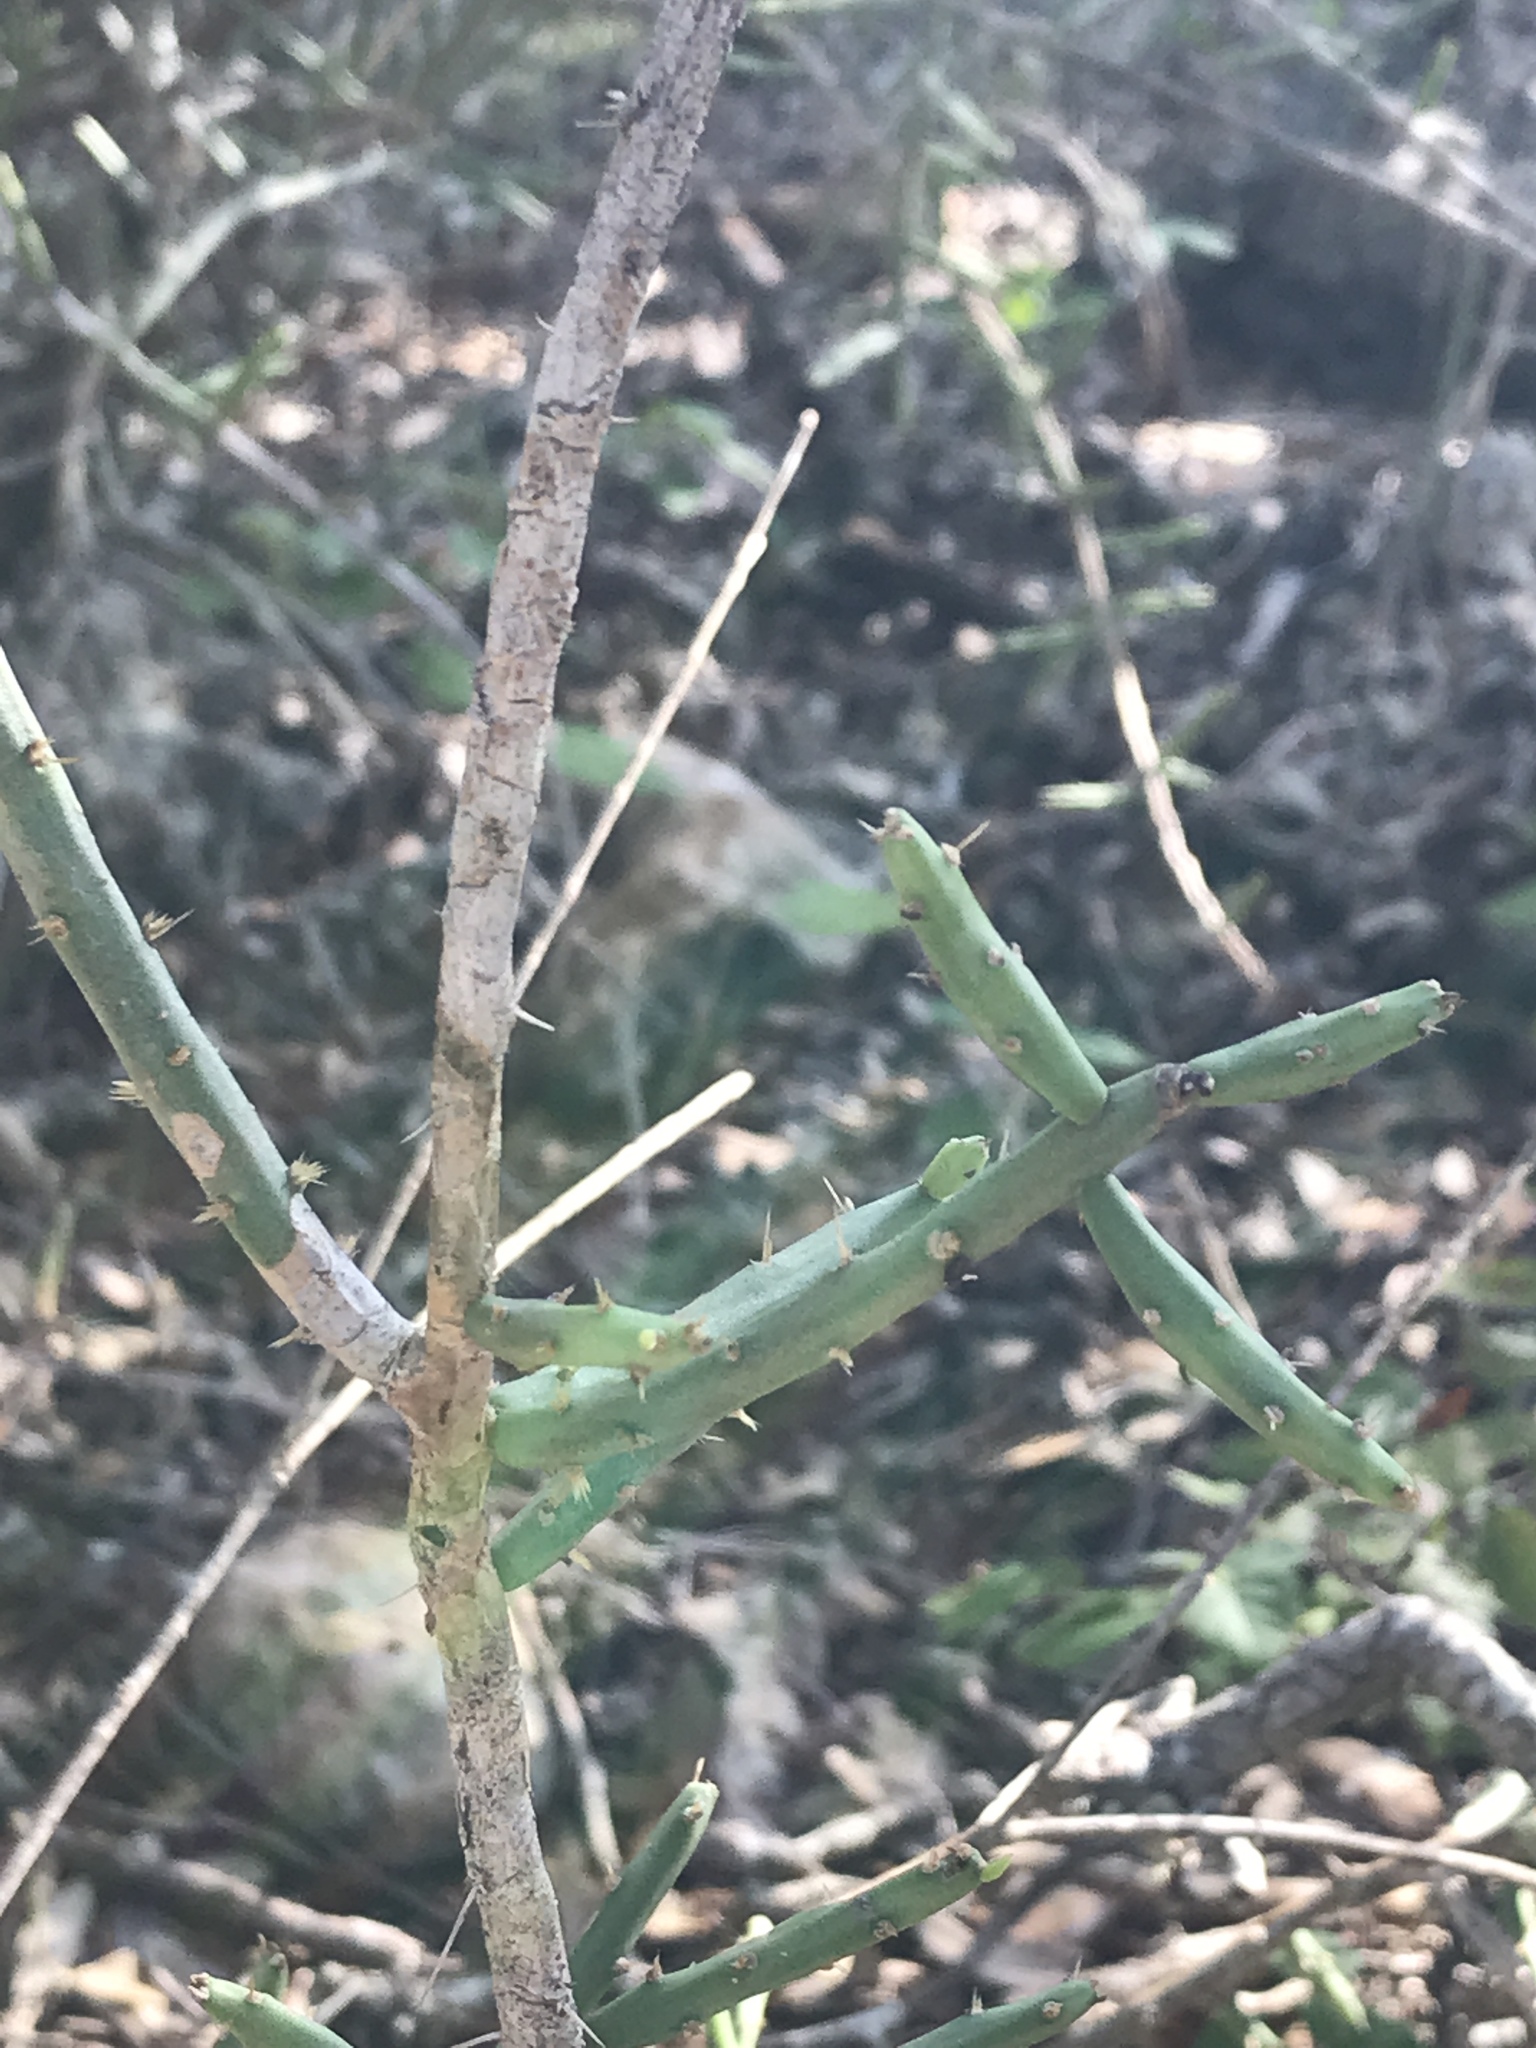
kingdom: Plantae
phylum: Tracheophyta
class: Magnoliopsida
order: Caryophyllales
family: Cactaceae
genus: Cylindropuntia
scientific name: Cylindropuntia leptocaulis
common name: Christmas cactus
